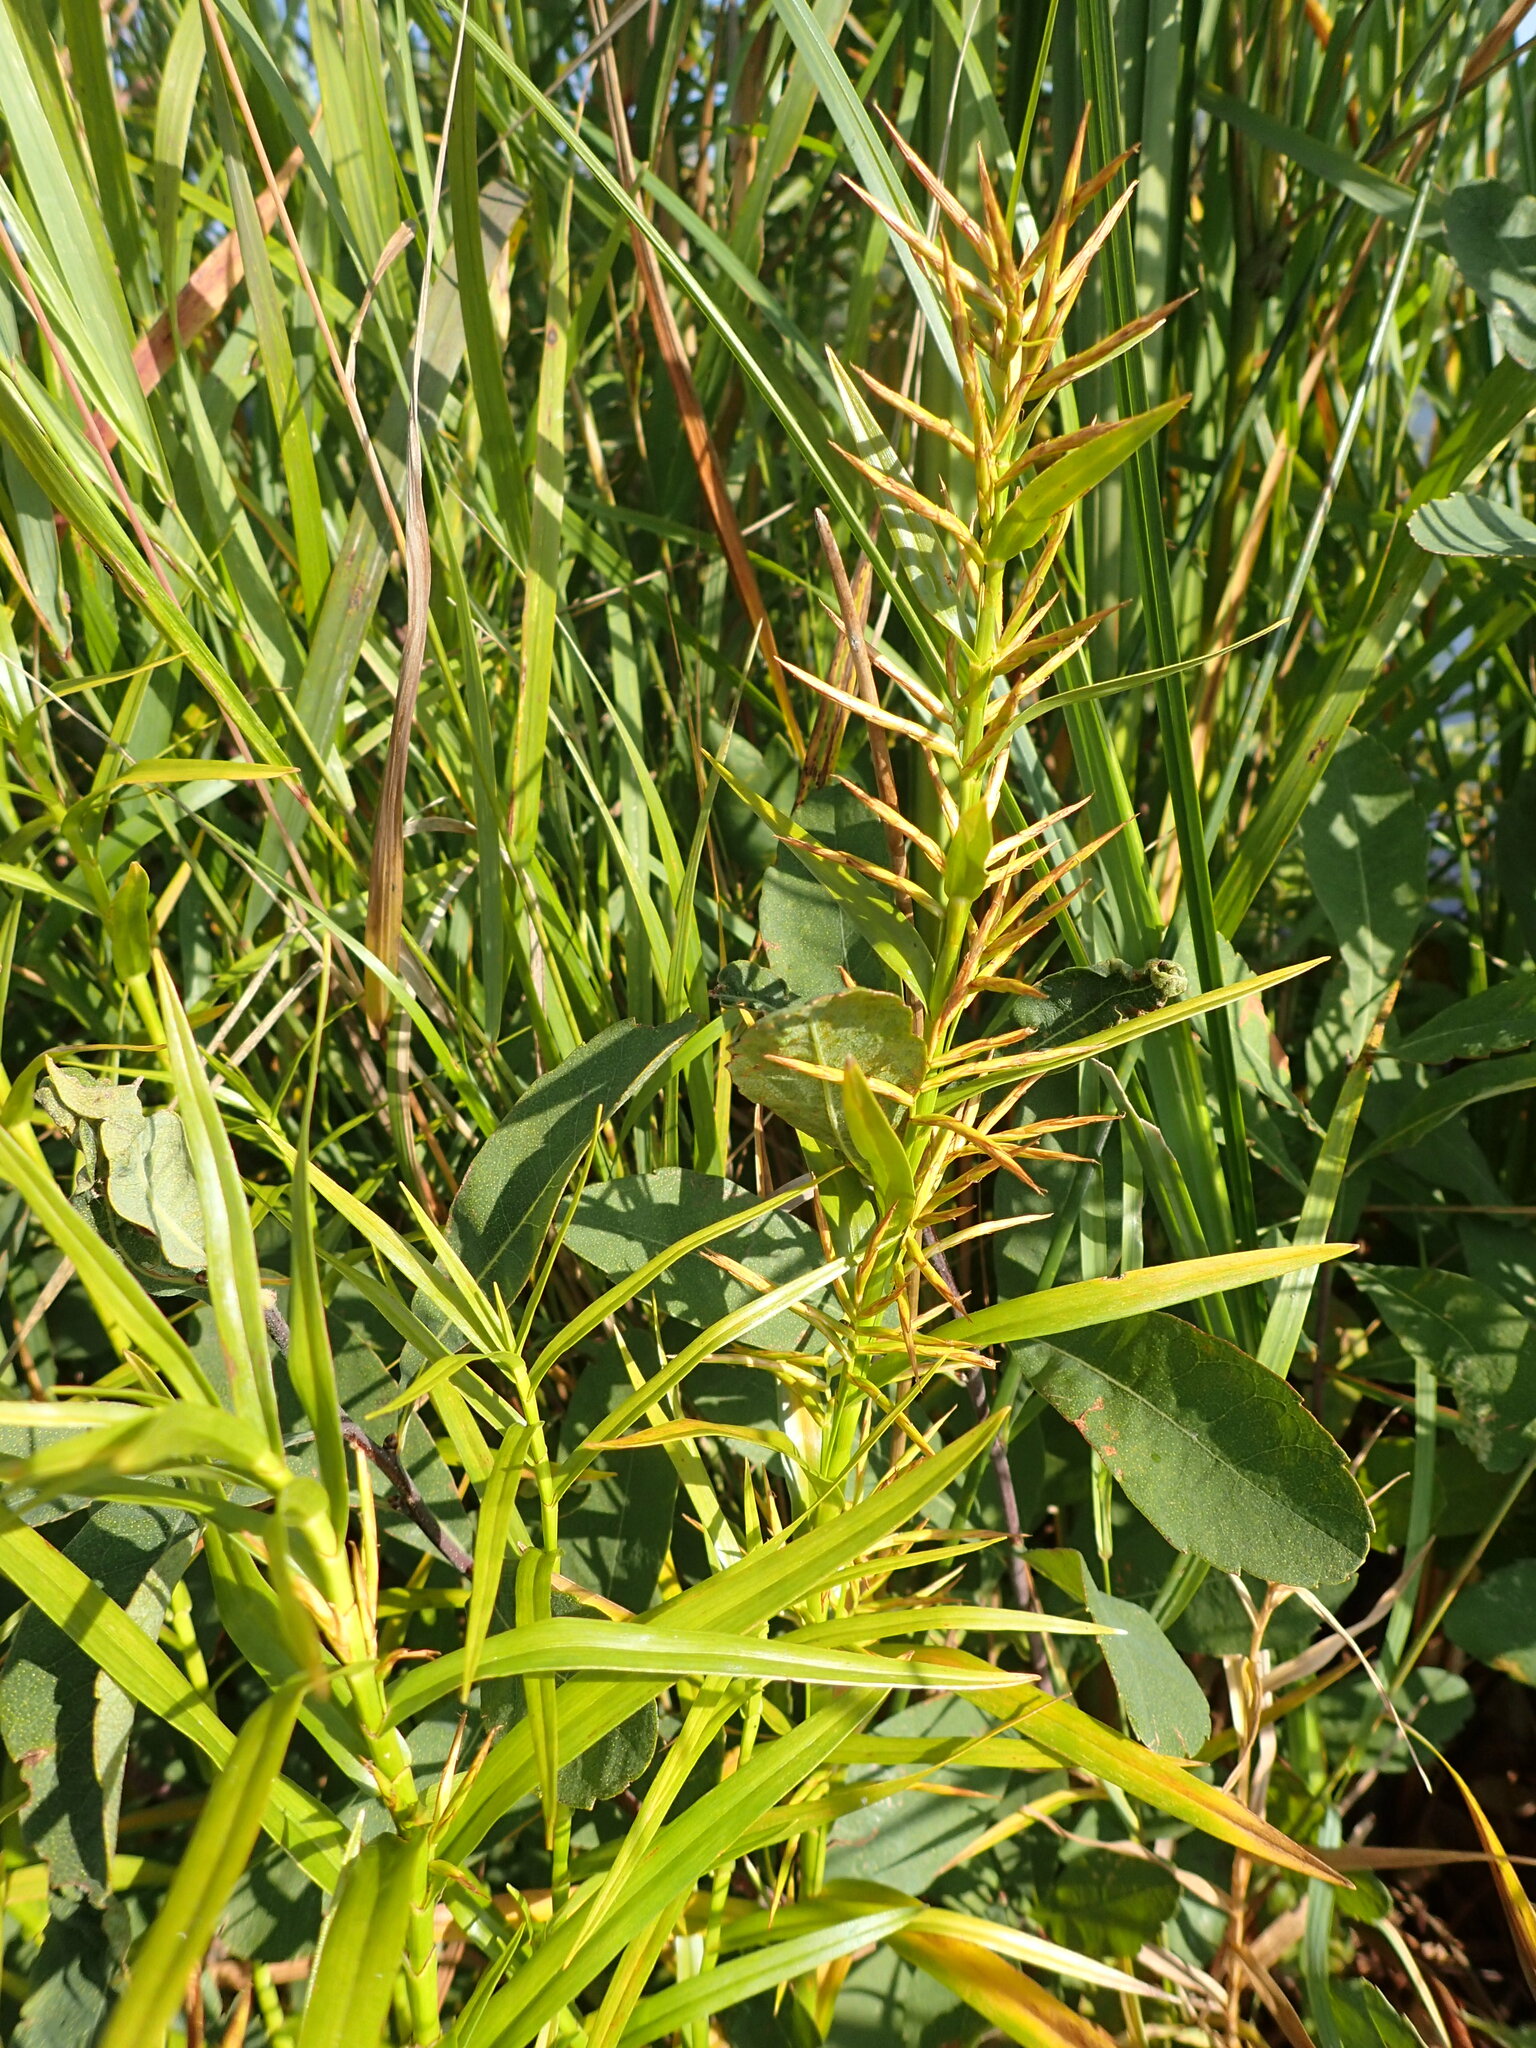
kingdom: Plantae
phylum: Tracheophyta
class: Liliopsida
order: Poales
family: Cyperaceae
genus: Dulichium
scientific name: Dulichium arundinaceum
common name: Three-way sedge
